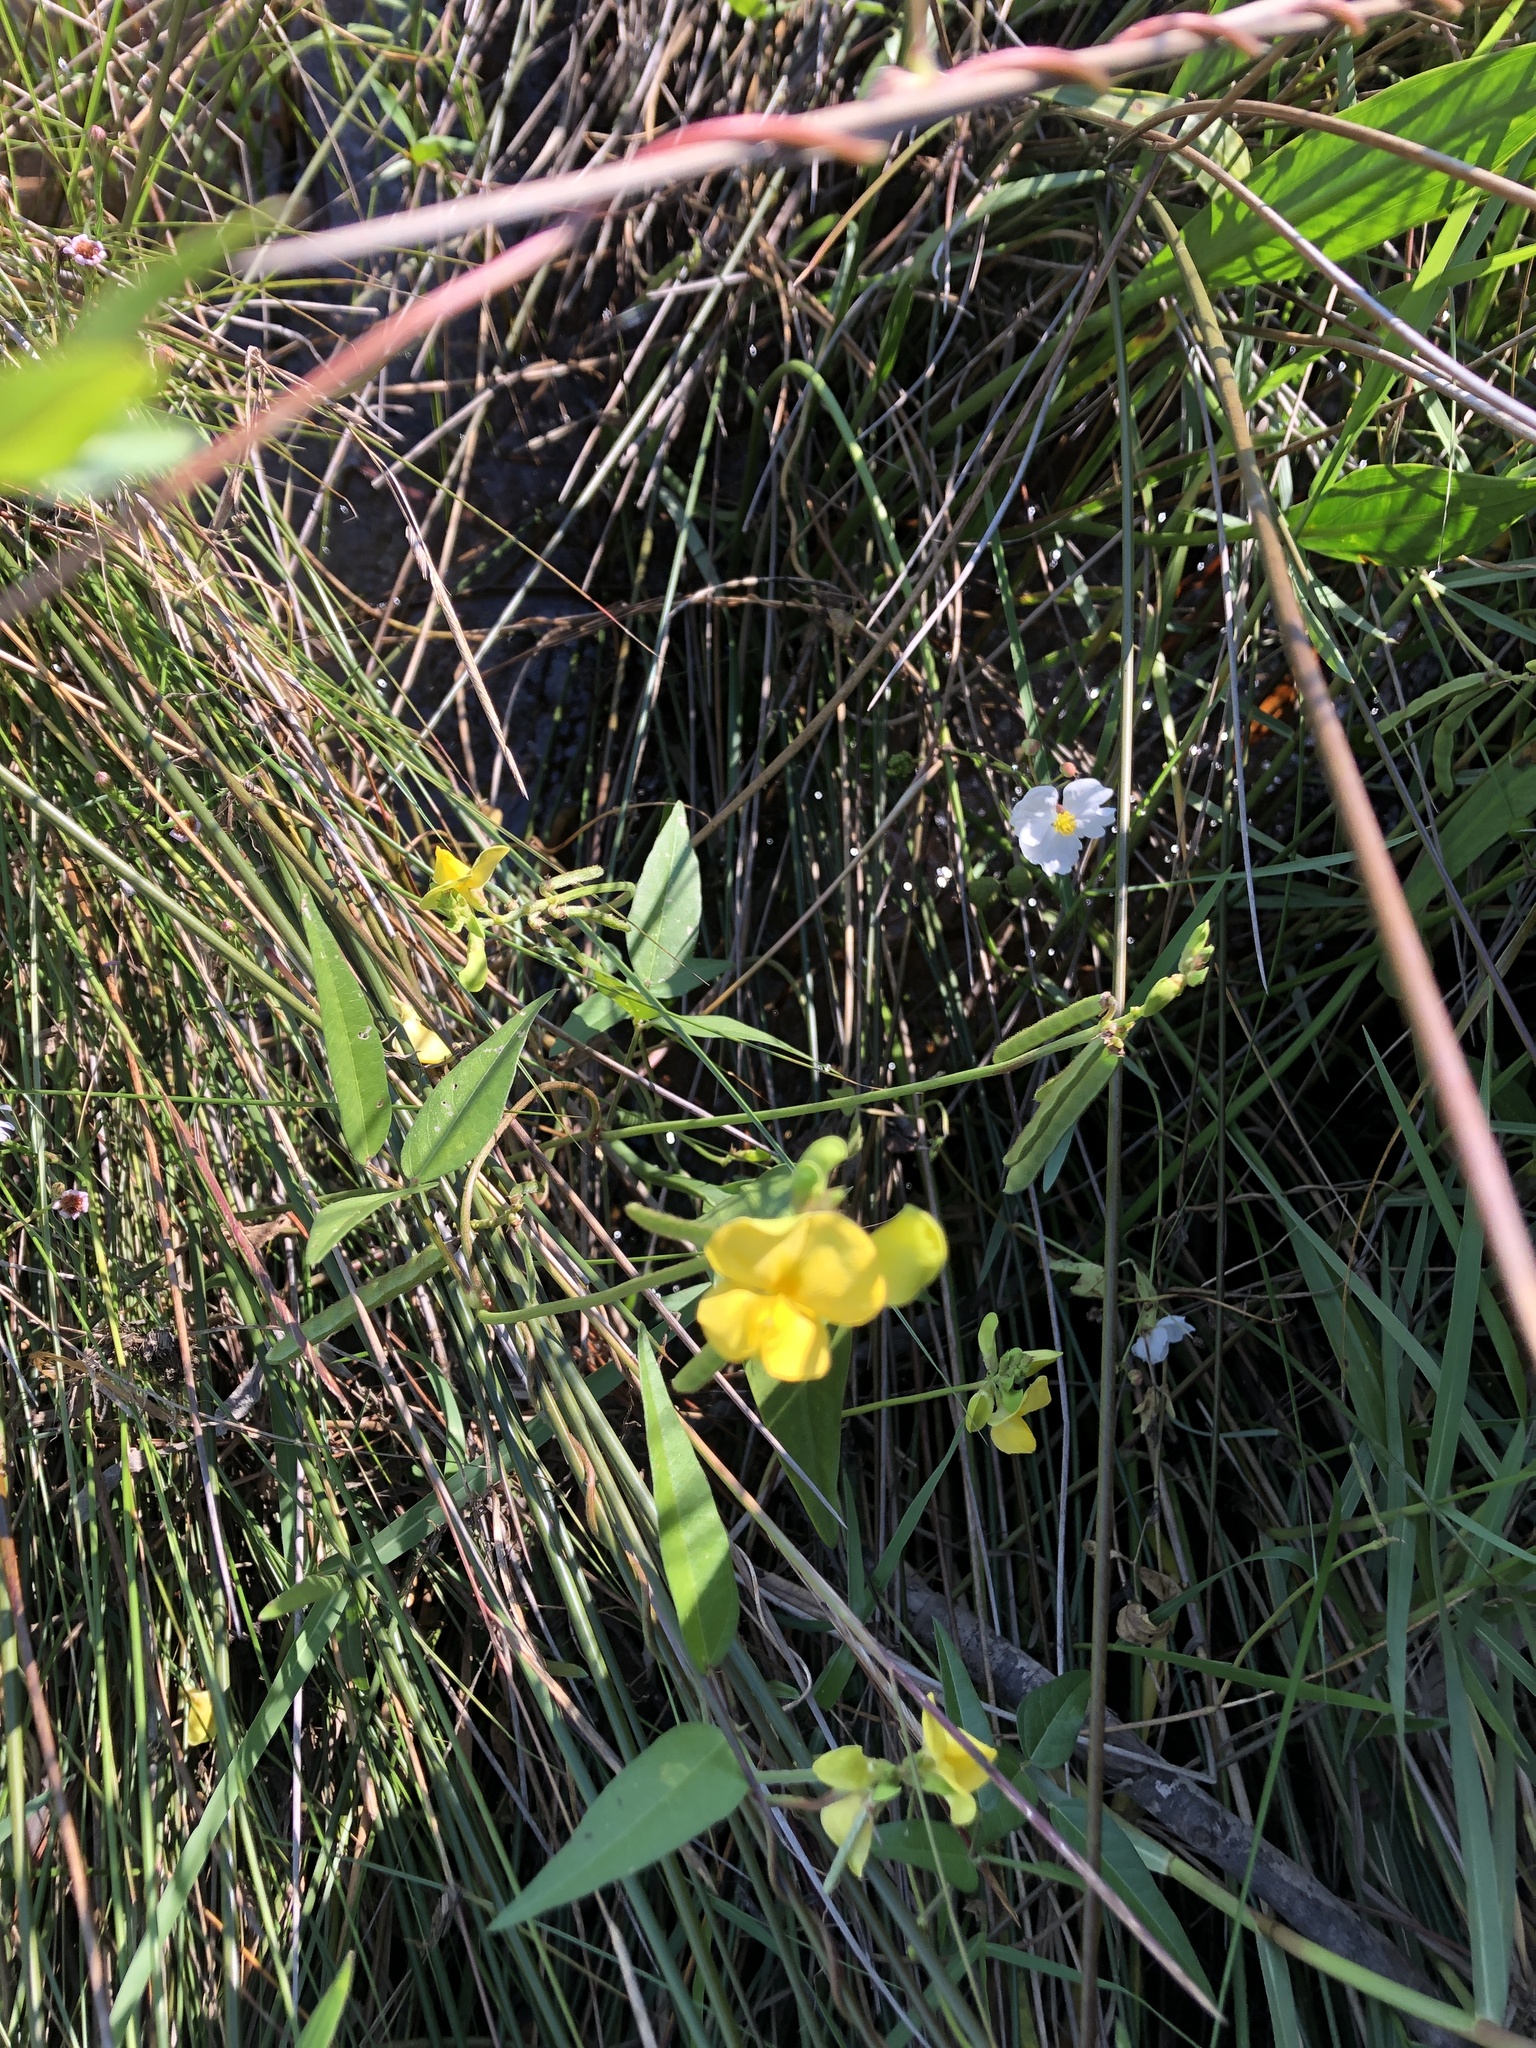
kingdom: Plantae
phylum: Tracheophyta
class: Magnoliopsida
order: Fabales
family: Fabaceae
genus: Vigna
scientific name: Vigna luteola
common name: Hairypod cowpea
